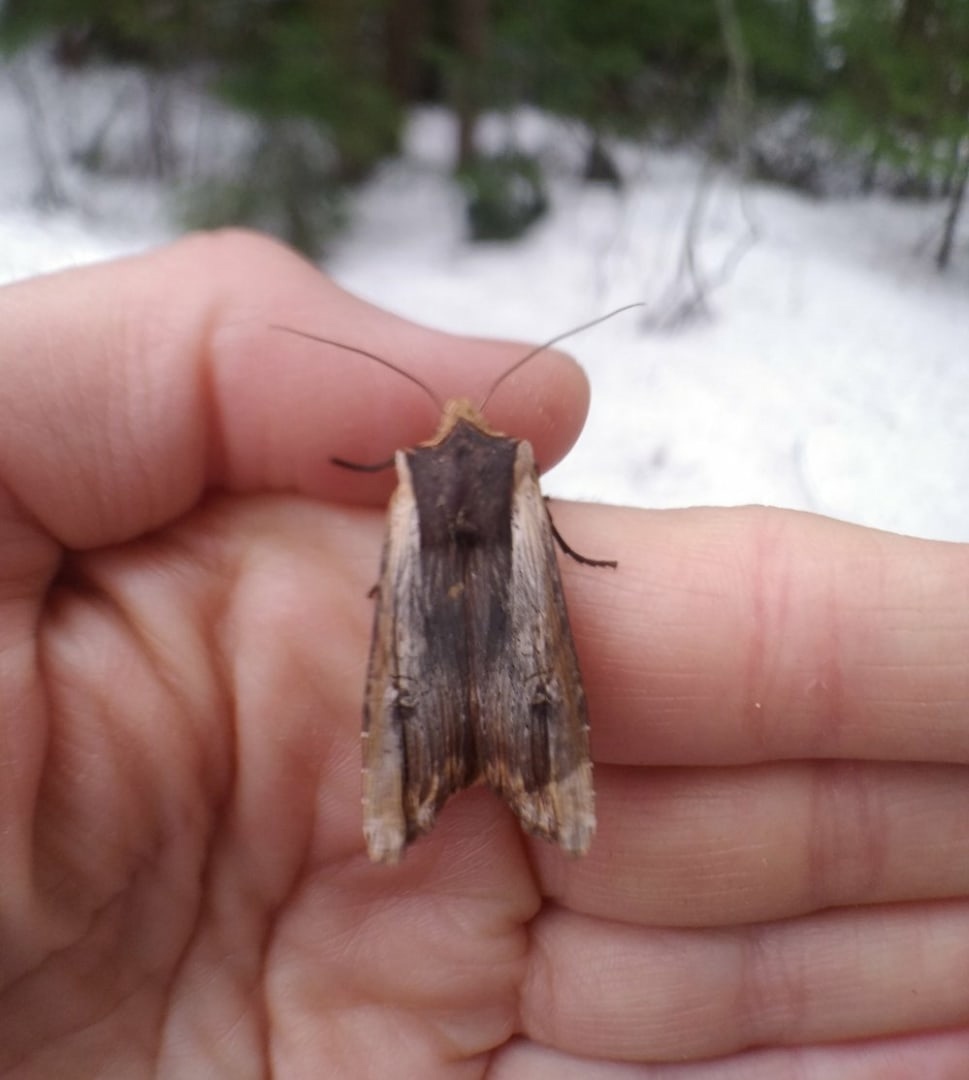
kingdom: Animalia
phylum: Arthropoda
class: Insecta
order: Lepidoptera
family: Noctuidae
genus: Xylena
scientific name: Xylena vetusta
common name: Red sword-grass
